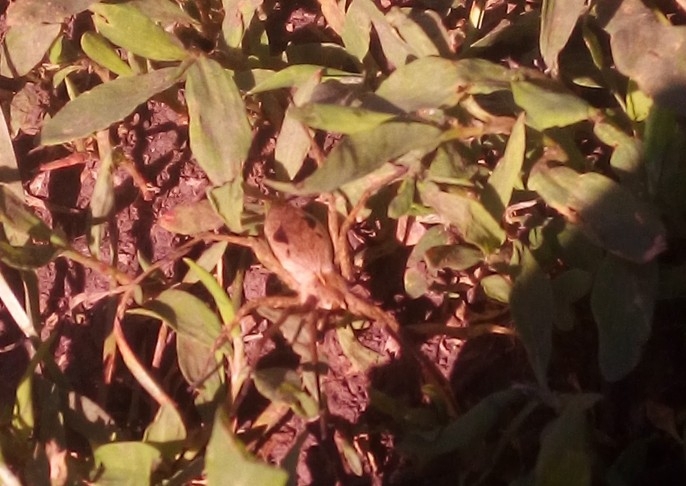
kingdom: Animalia
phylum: Arthropoda
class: Arachnida
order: Araneae
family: Pisauridae
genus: Pisaura
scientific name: Pisaura mirabilis
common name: Tent spider
